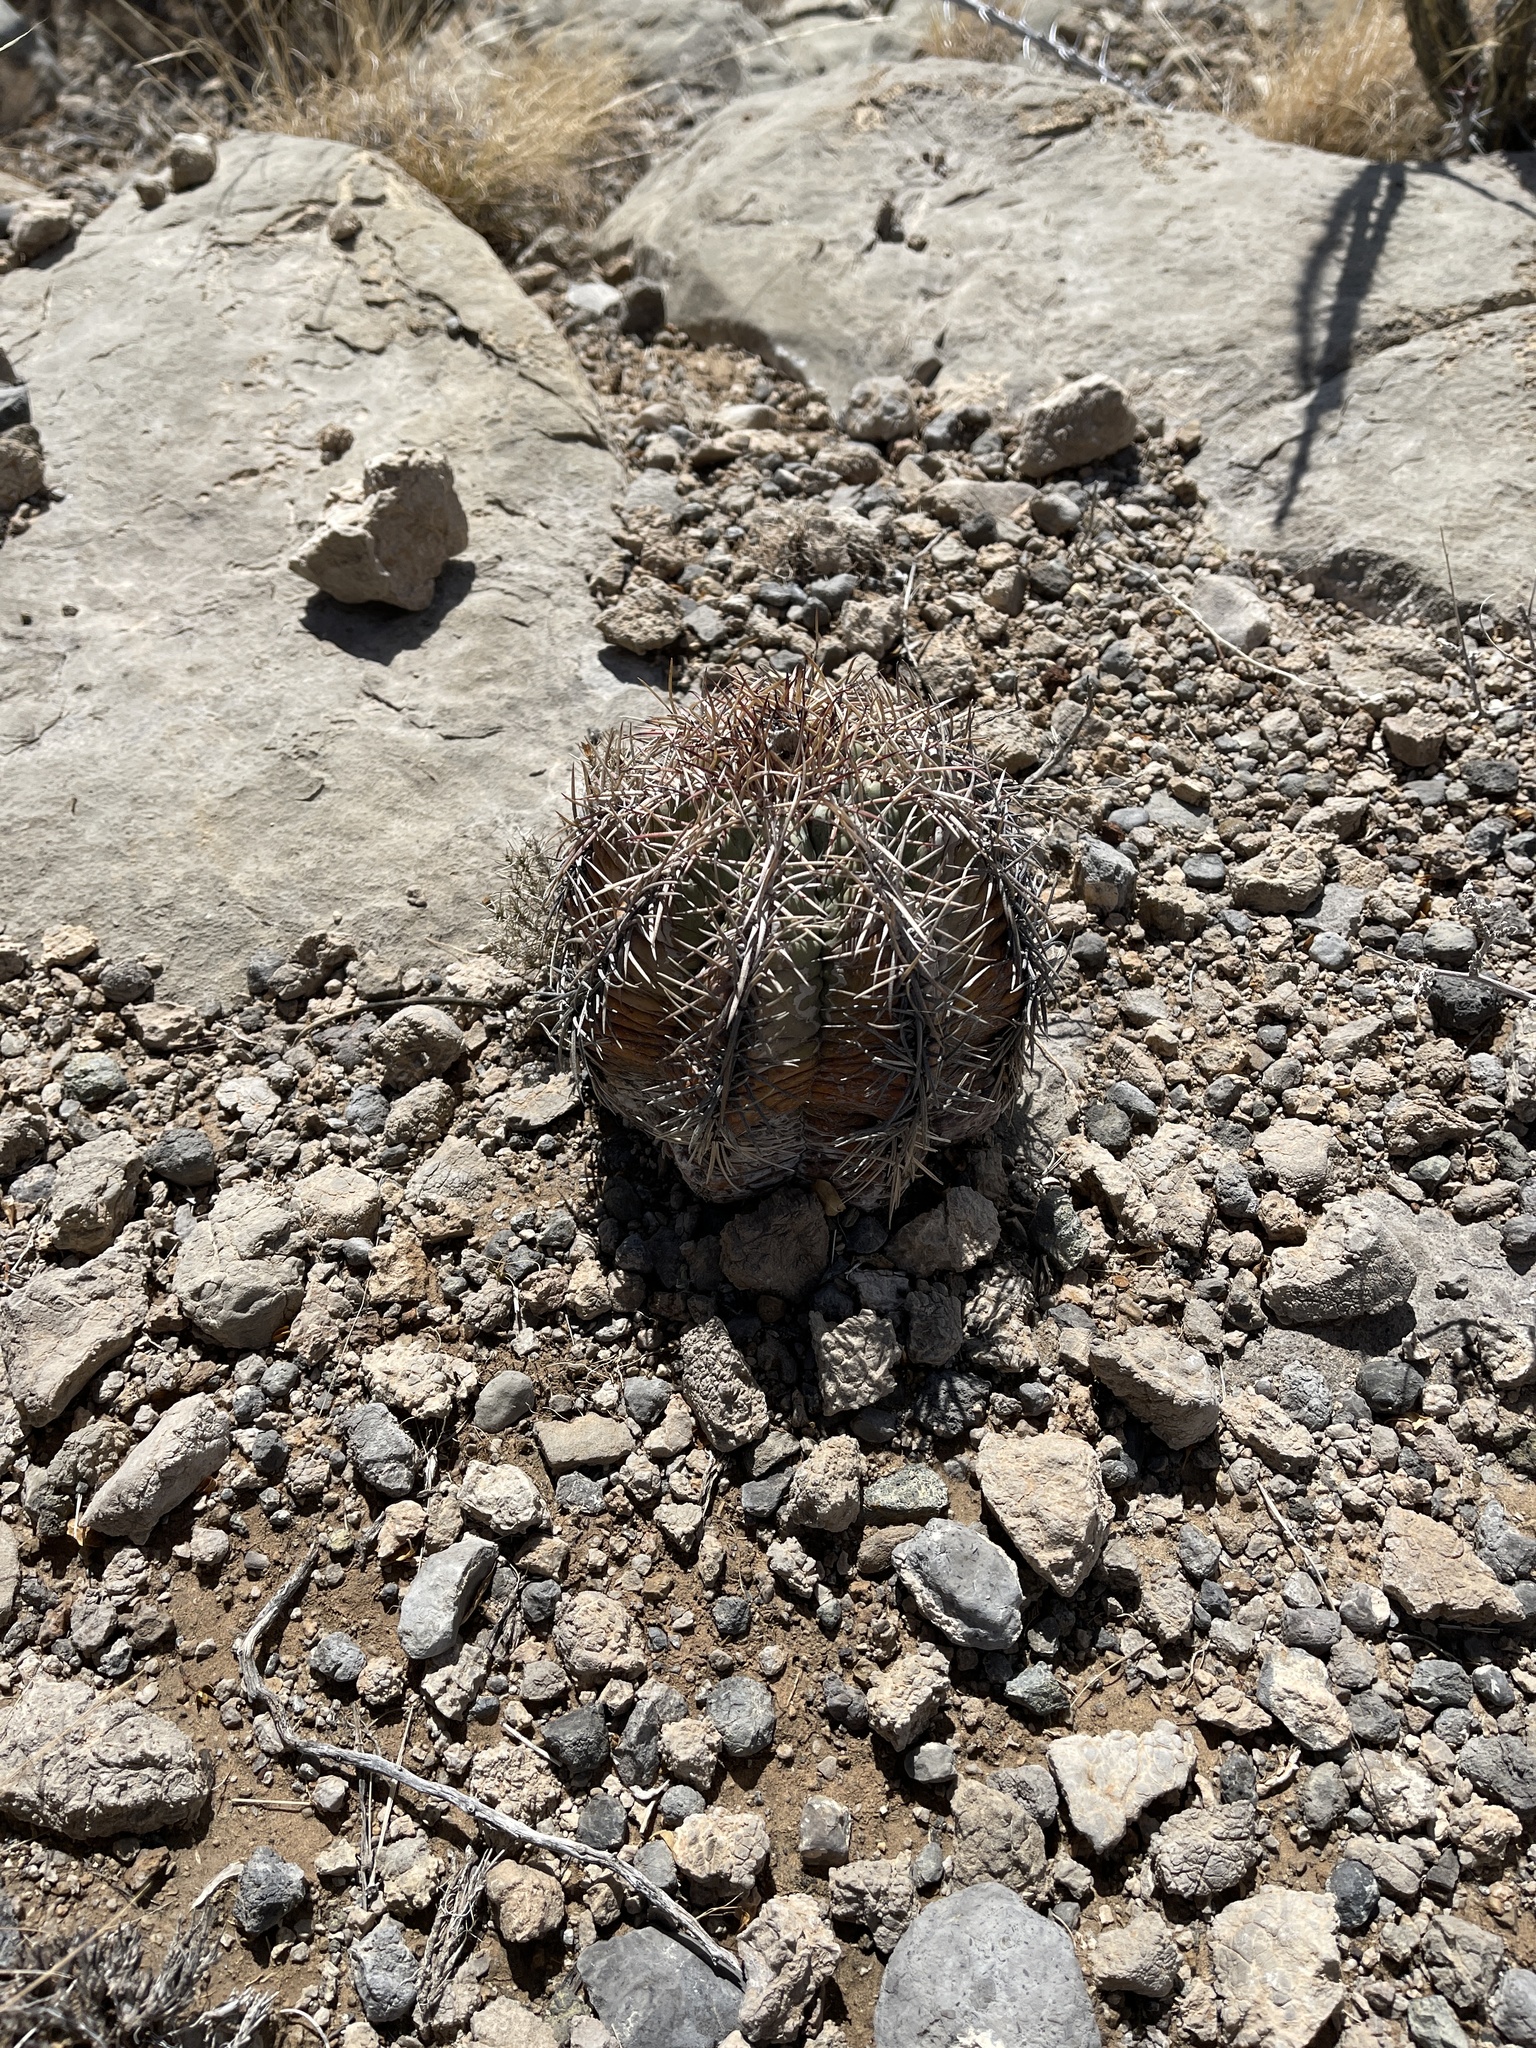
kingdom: Plantae
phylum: Tracheophyta
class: Magnoliopsida
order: Caryophyllales
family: Cactaceae
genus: Echinocactus
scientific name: Echinocactus horizonthalonius
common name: Devilshead
